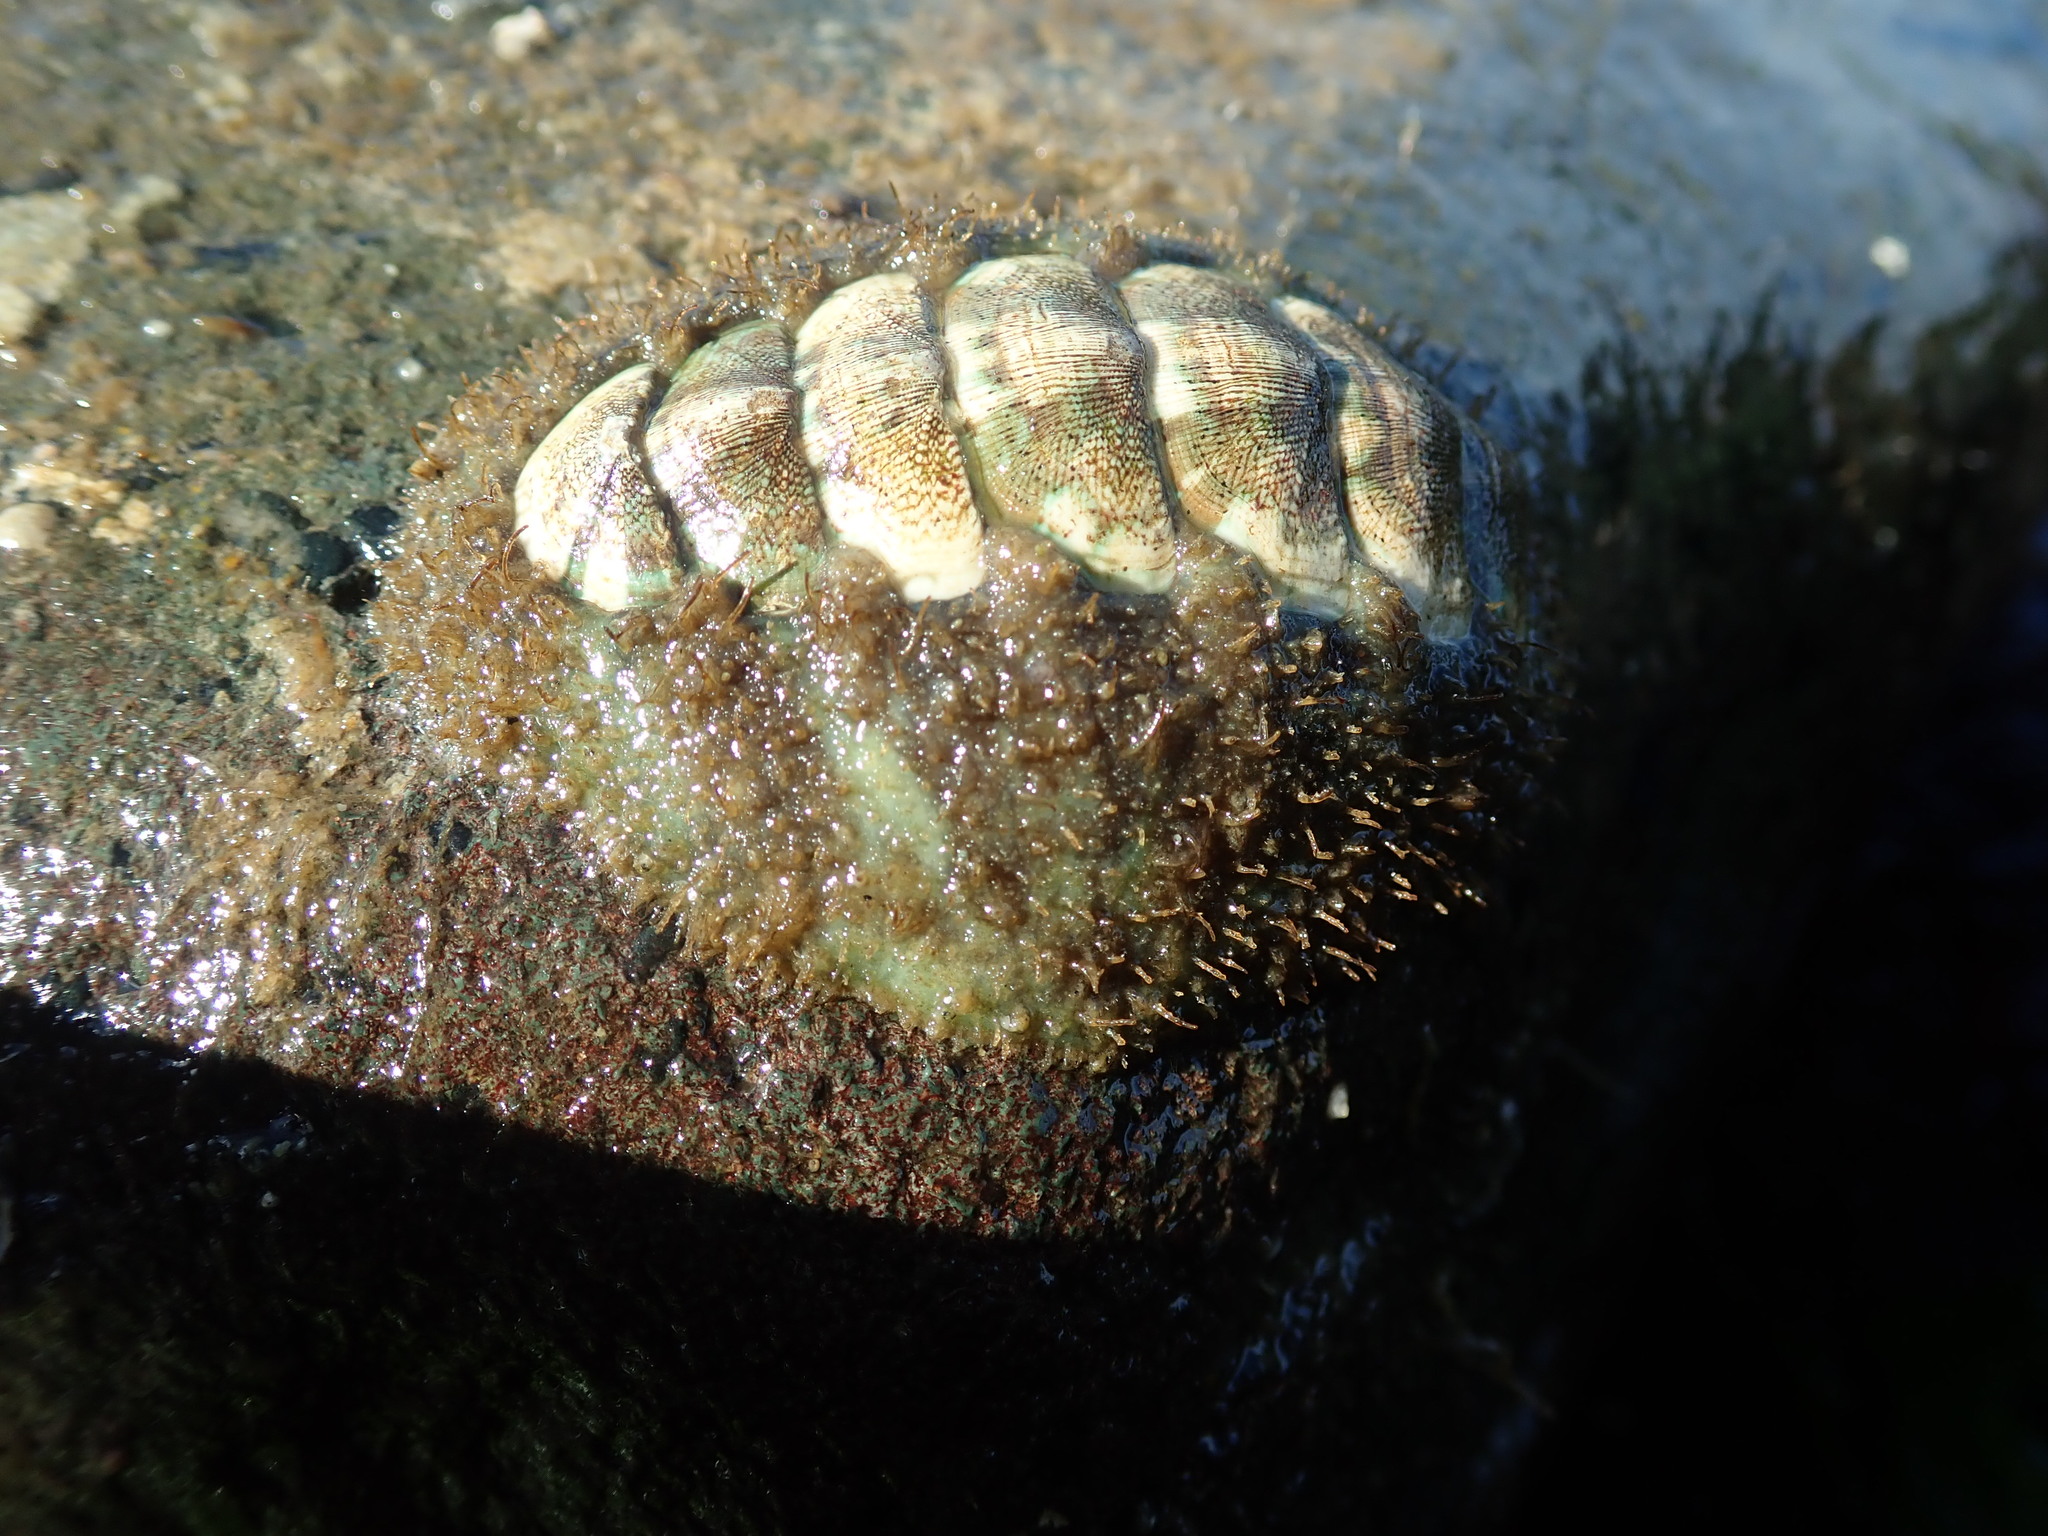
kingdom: Animalia
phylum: Mollusca
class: Polyplacophora
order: Chitonida
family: Mopaliidae
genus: Mopalia
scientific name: Mopalia muscosa
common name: Mossy chiton
